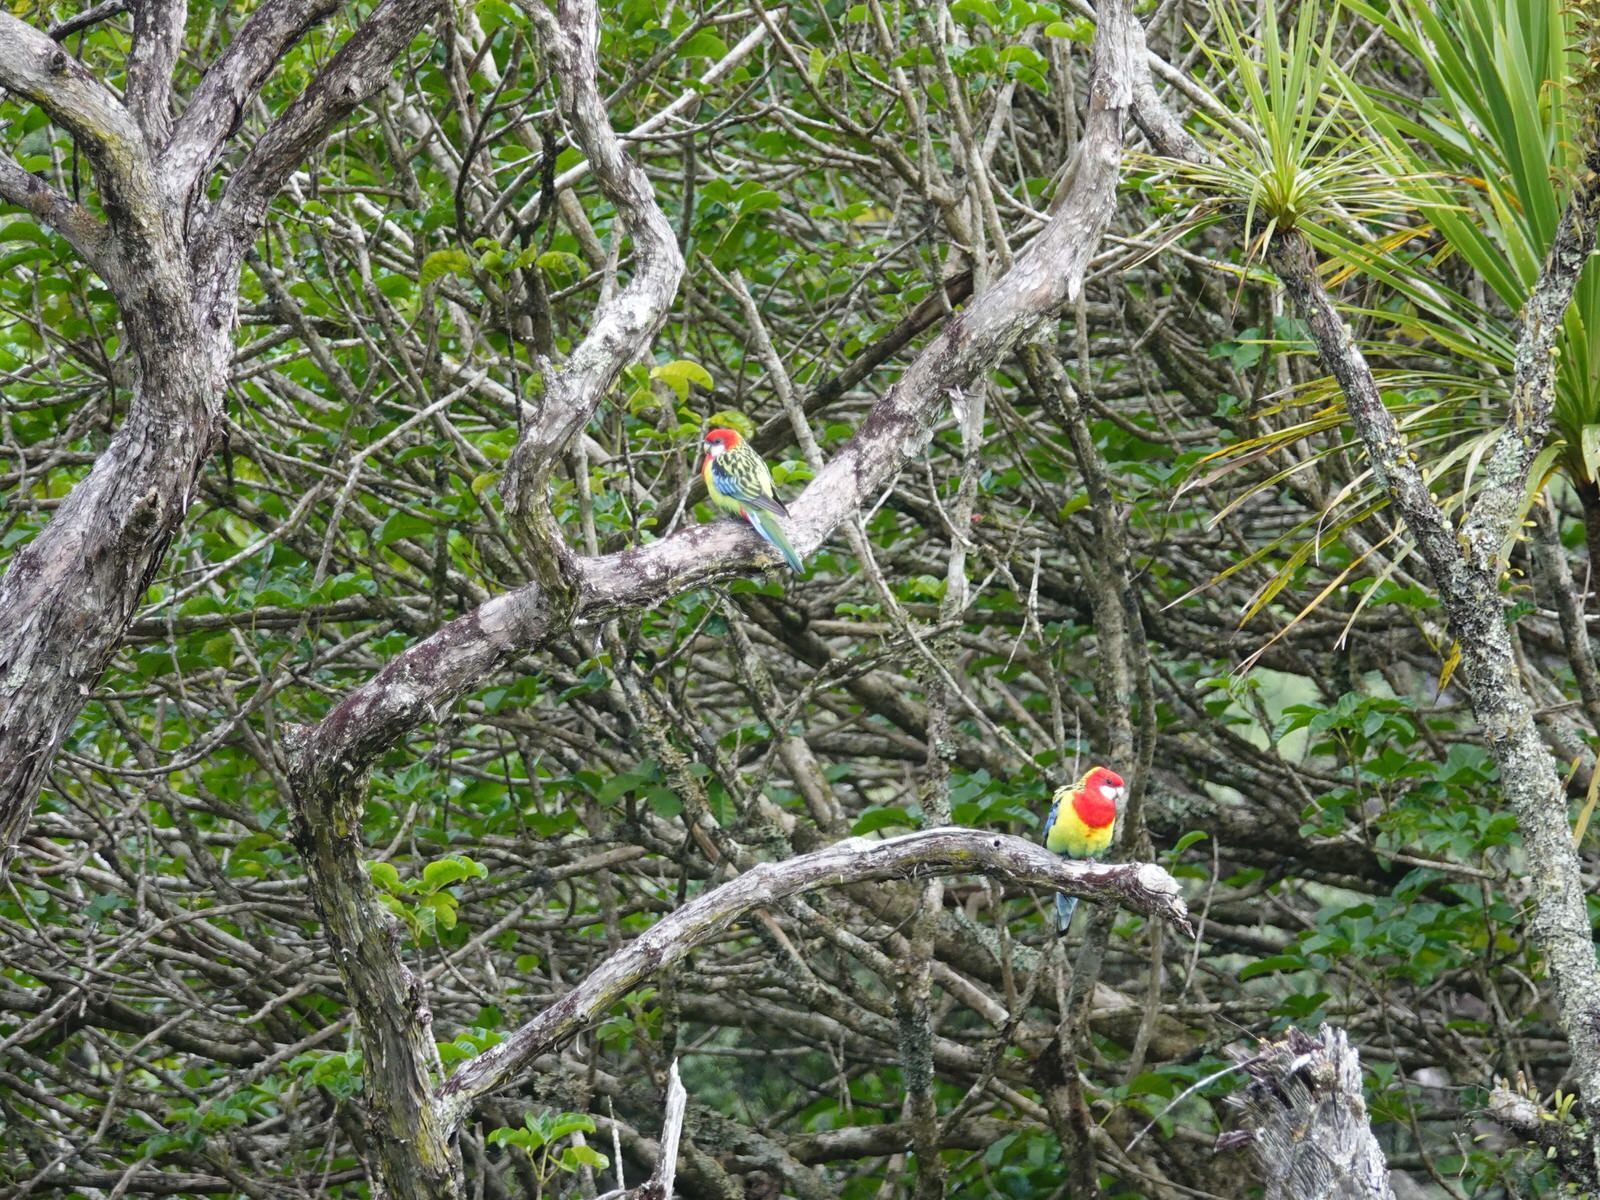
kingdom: Animalia
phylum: Chordata
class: Aves
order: Psittaciformes
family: Psittacidae
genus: Platycercus
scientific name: Platycercus eximius
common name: Eastern rosella
